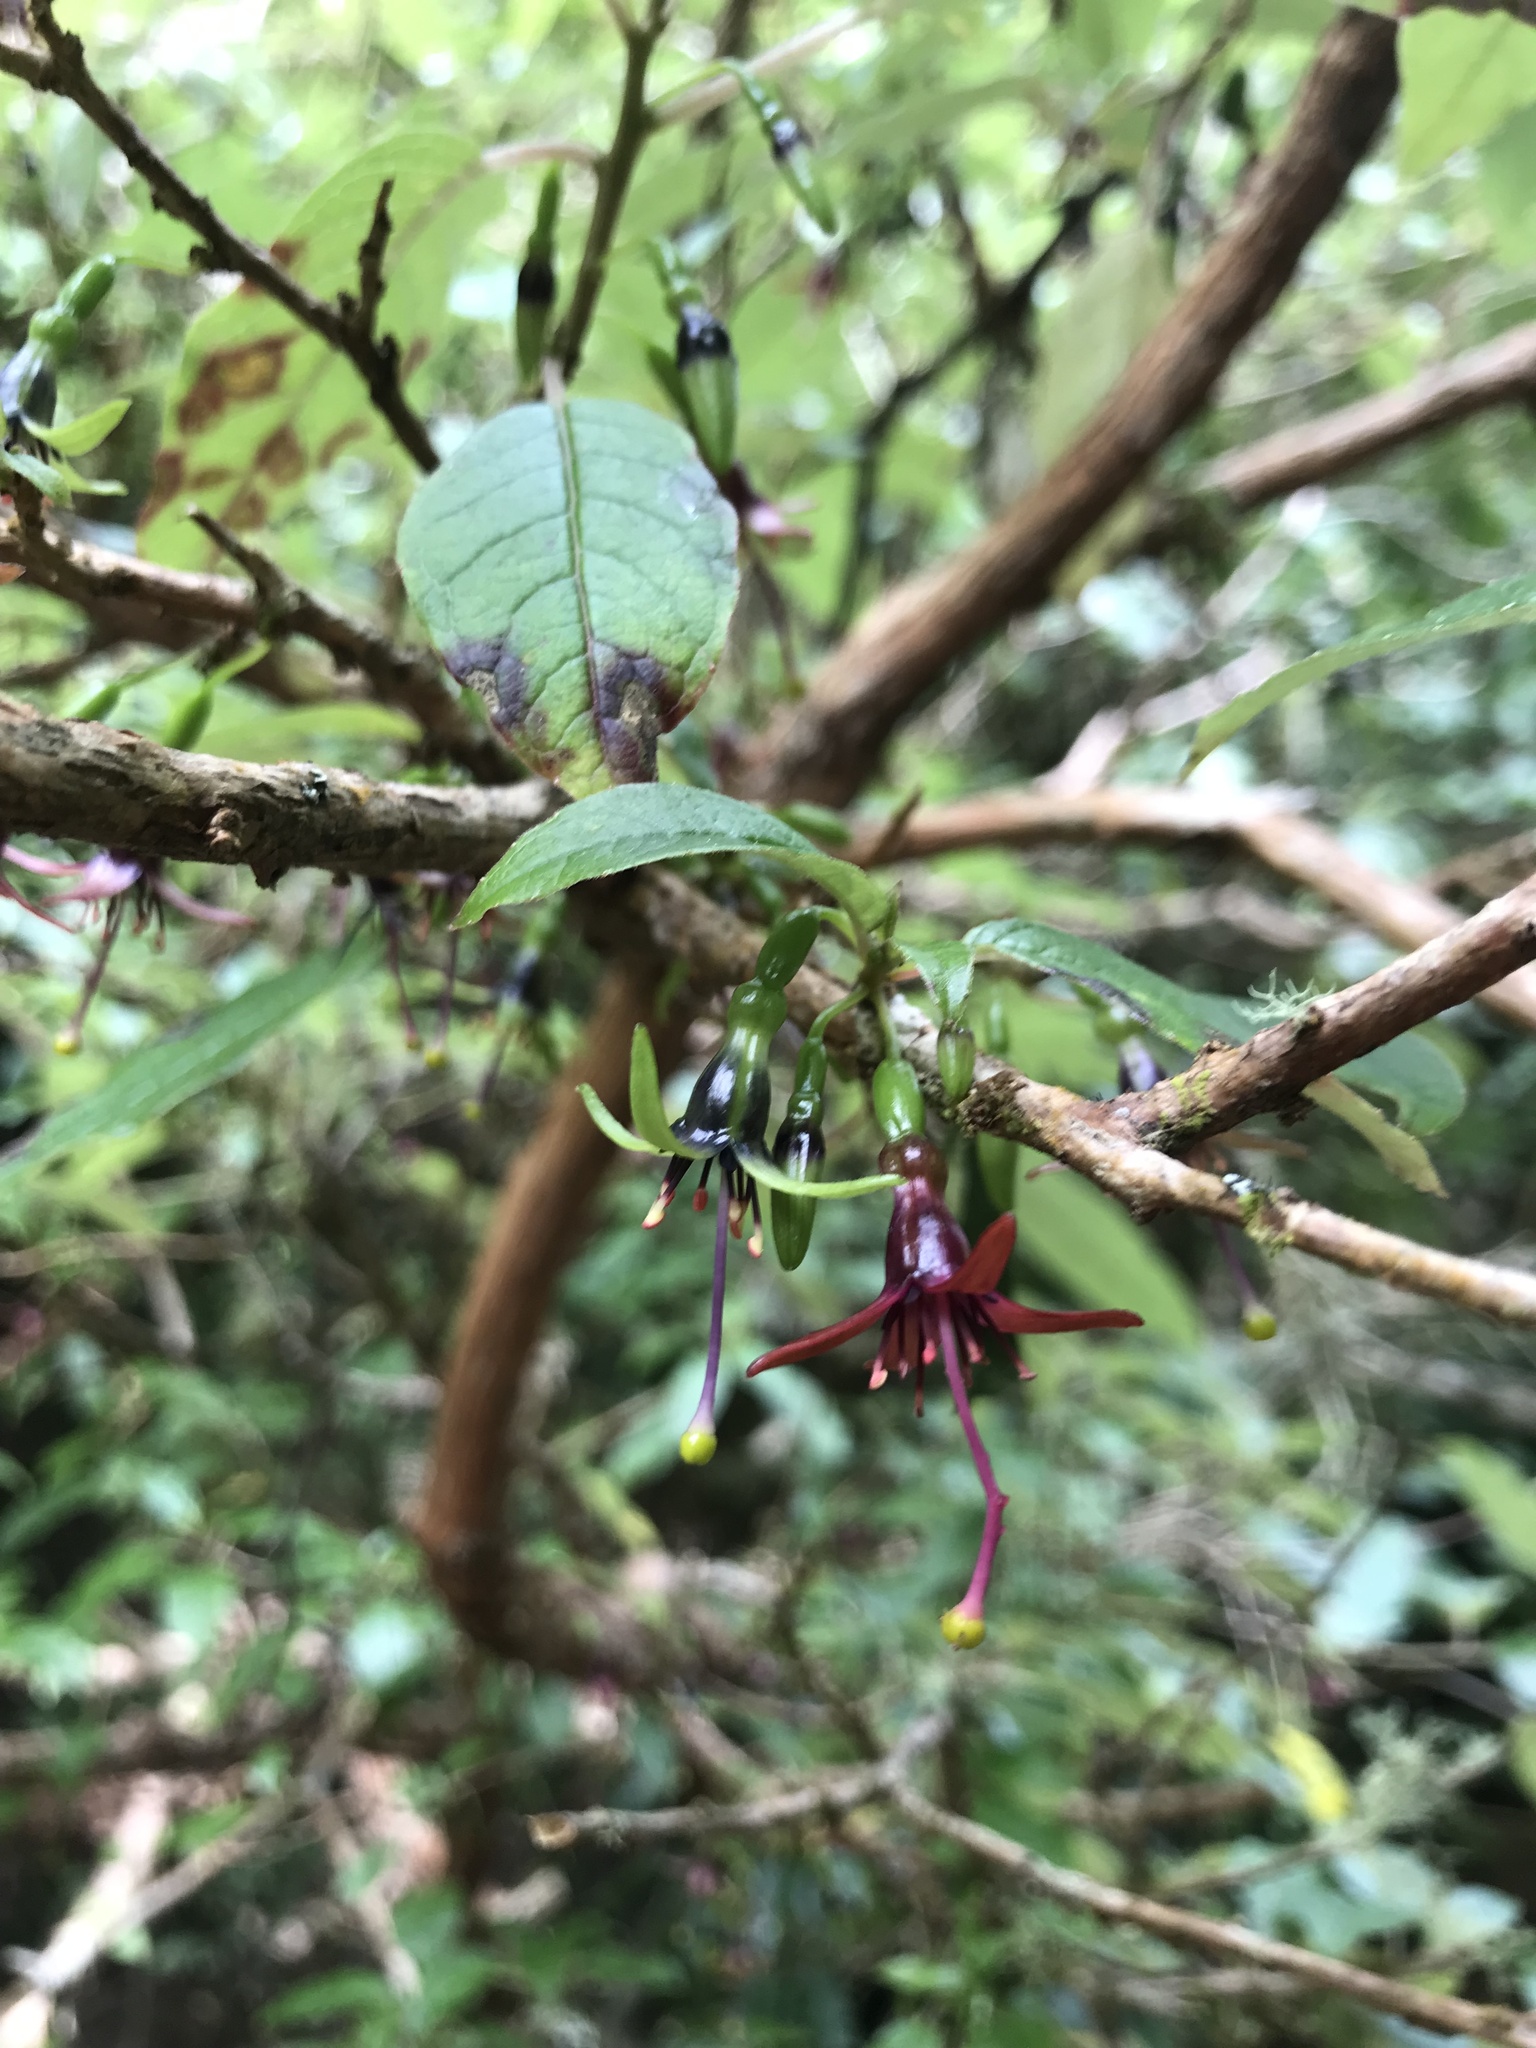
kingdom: Plantae
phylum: Tracheophyta
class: Magnoliopsida
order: Myrtales
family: Onagraceae
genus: Fuchsia
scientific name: Fuchsia excorticata
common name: Tree fuchsia
